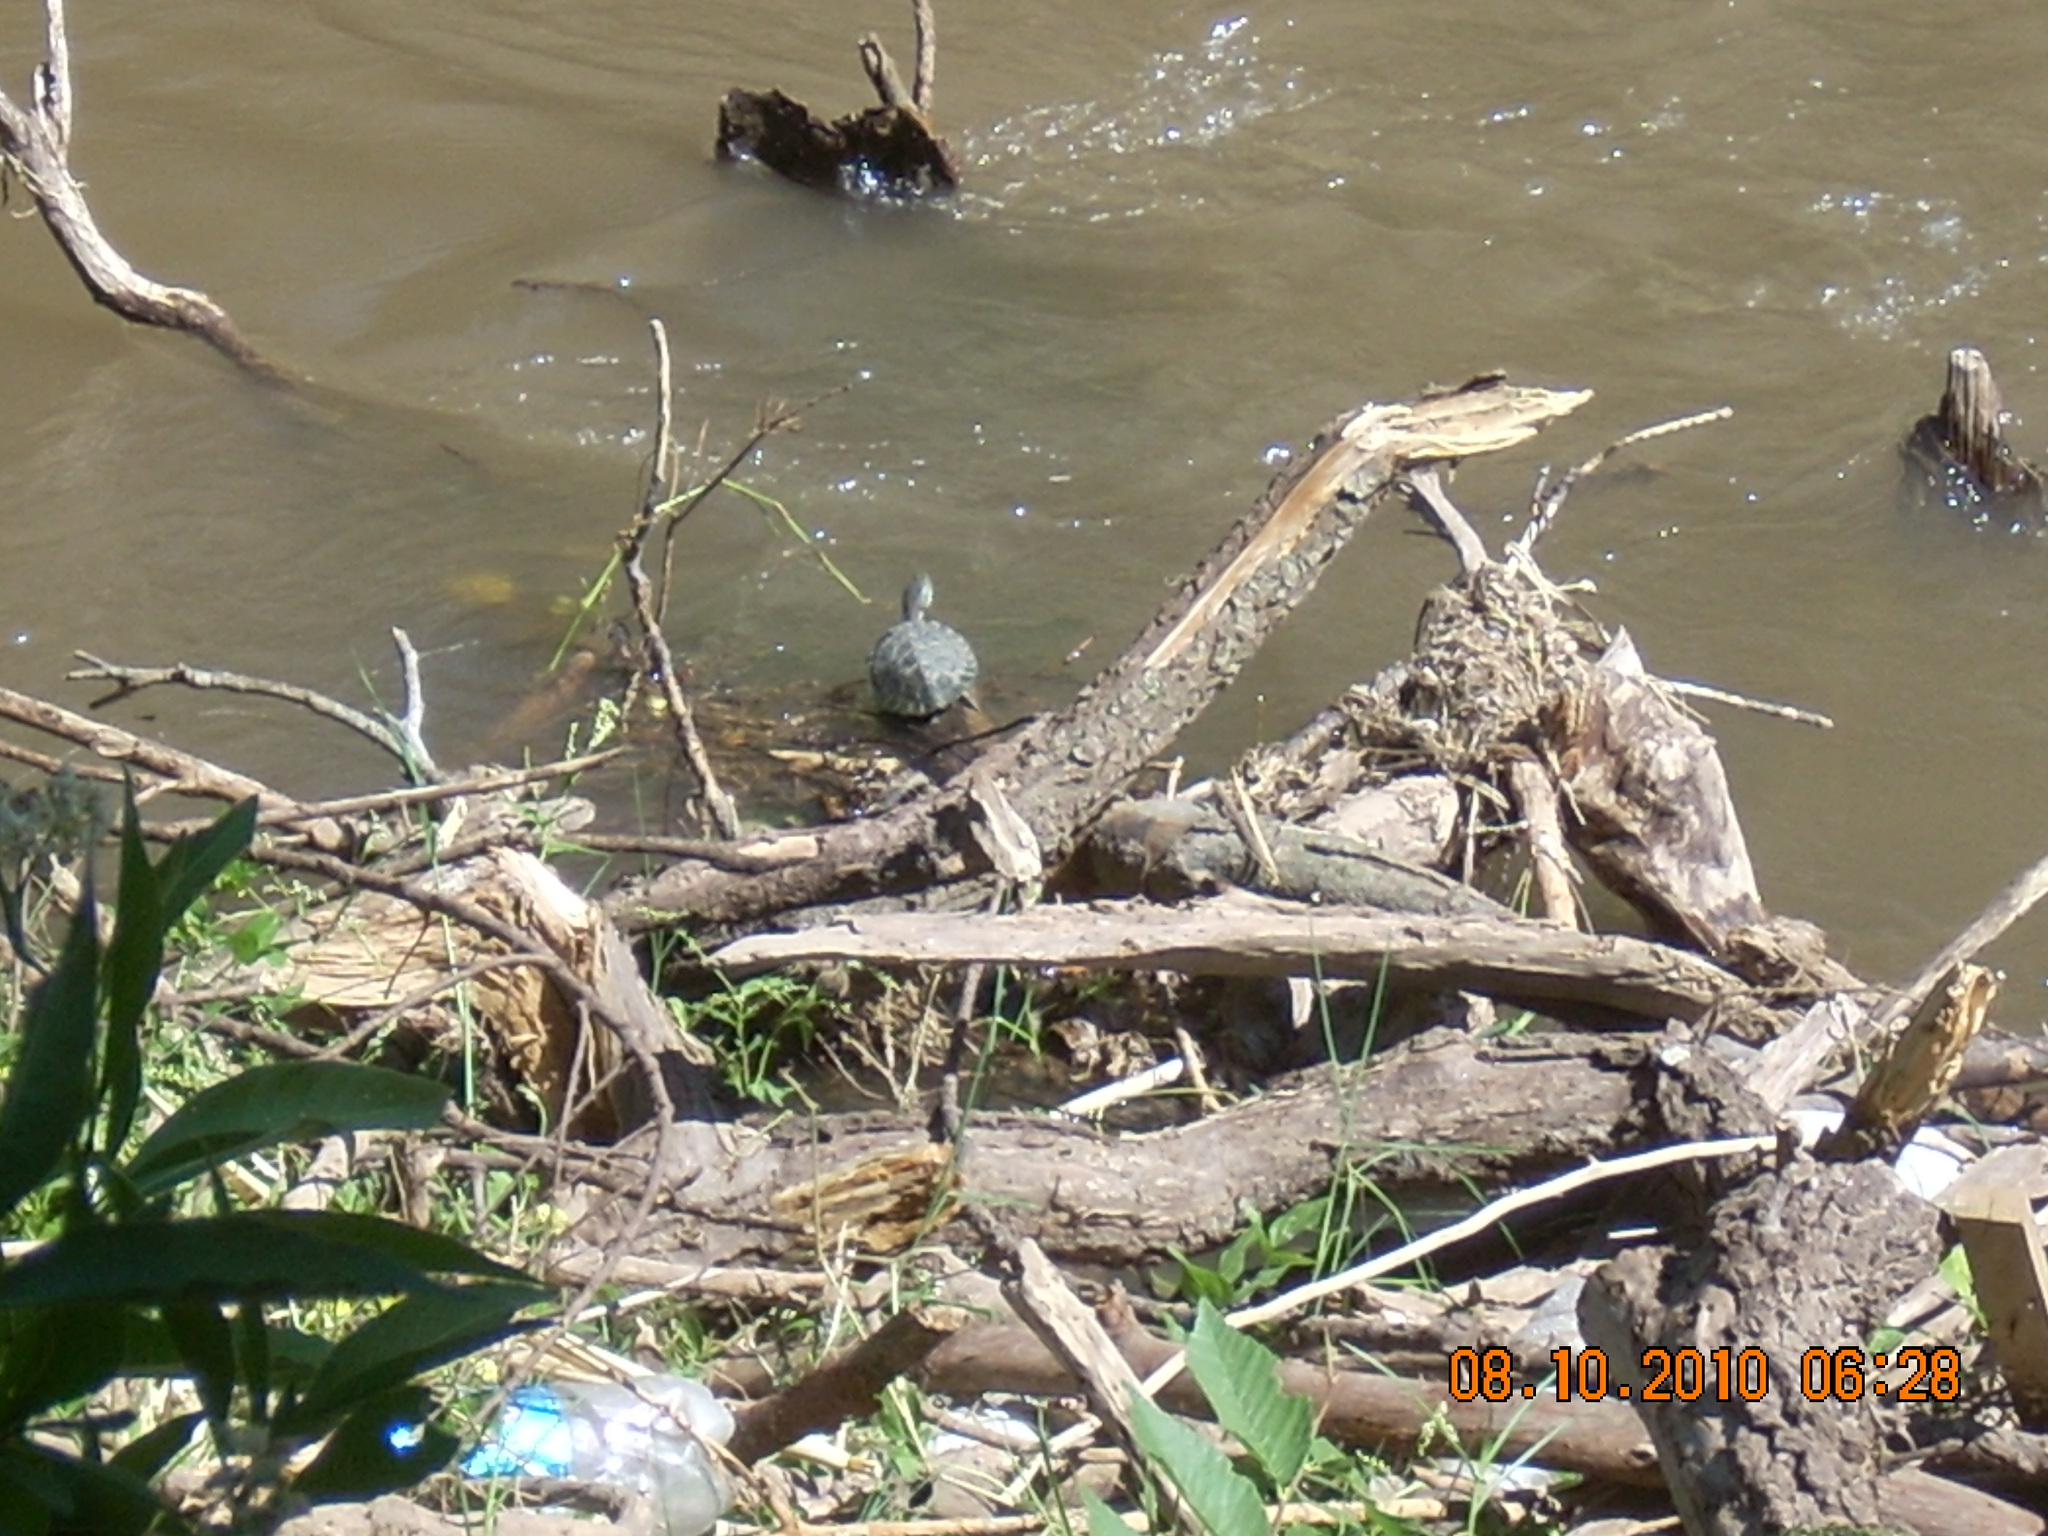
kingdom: Animalia
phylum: Chordata
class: Testudines
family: Chelidae
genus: Phrynops
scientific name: Phrynops hilarii
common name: Side-necked turtle of saint hillaire
